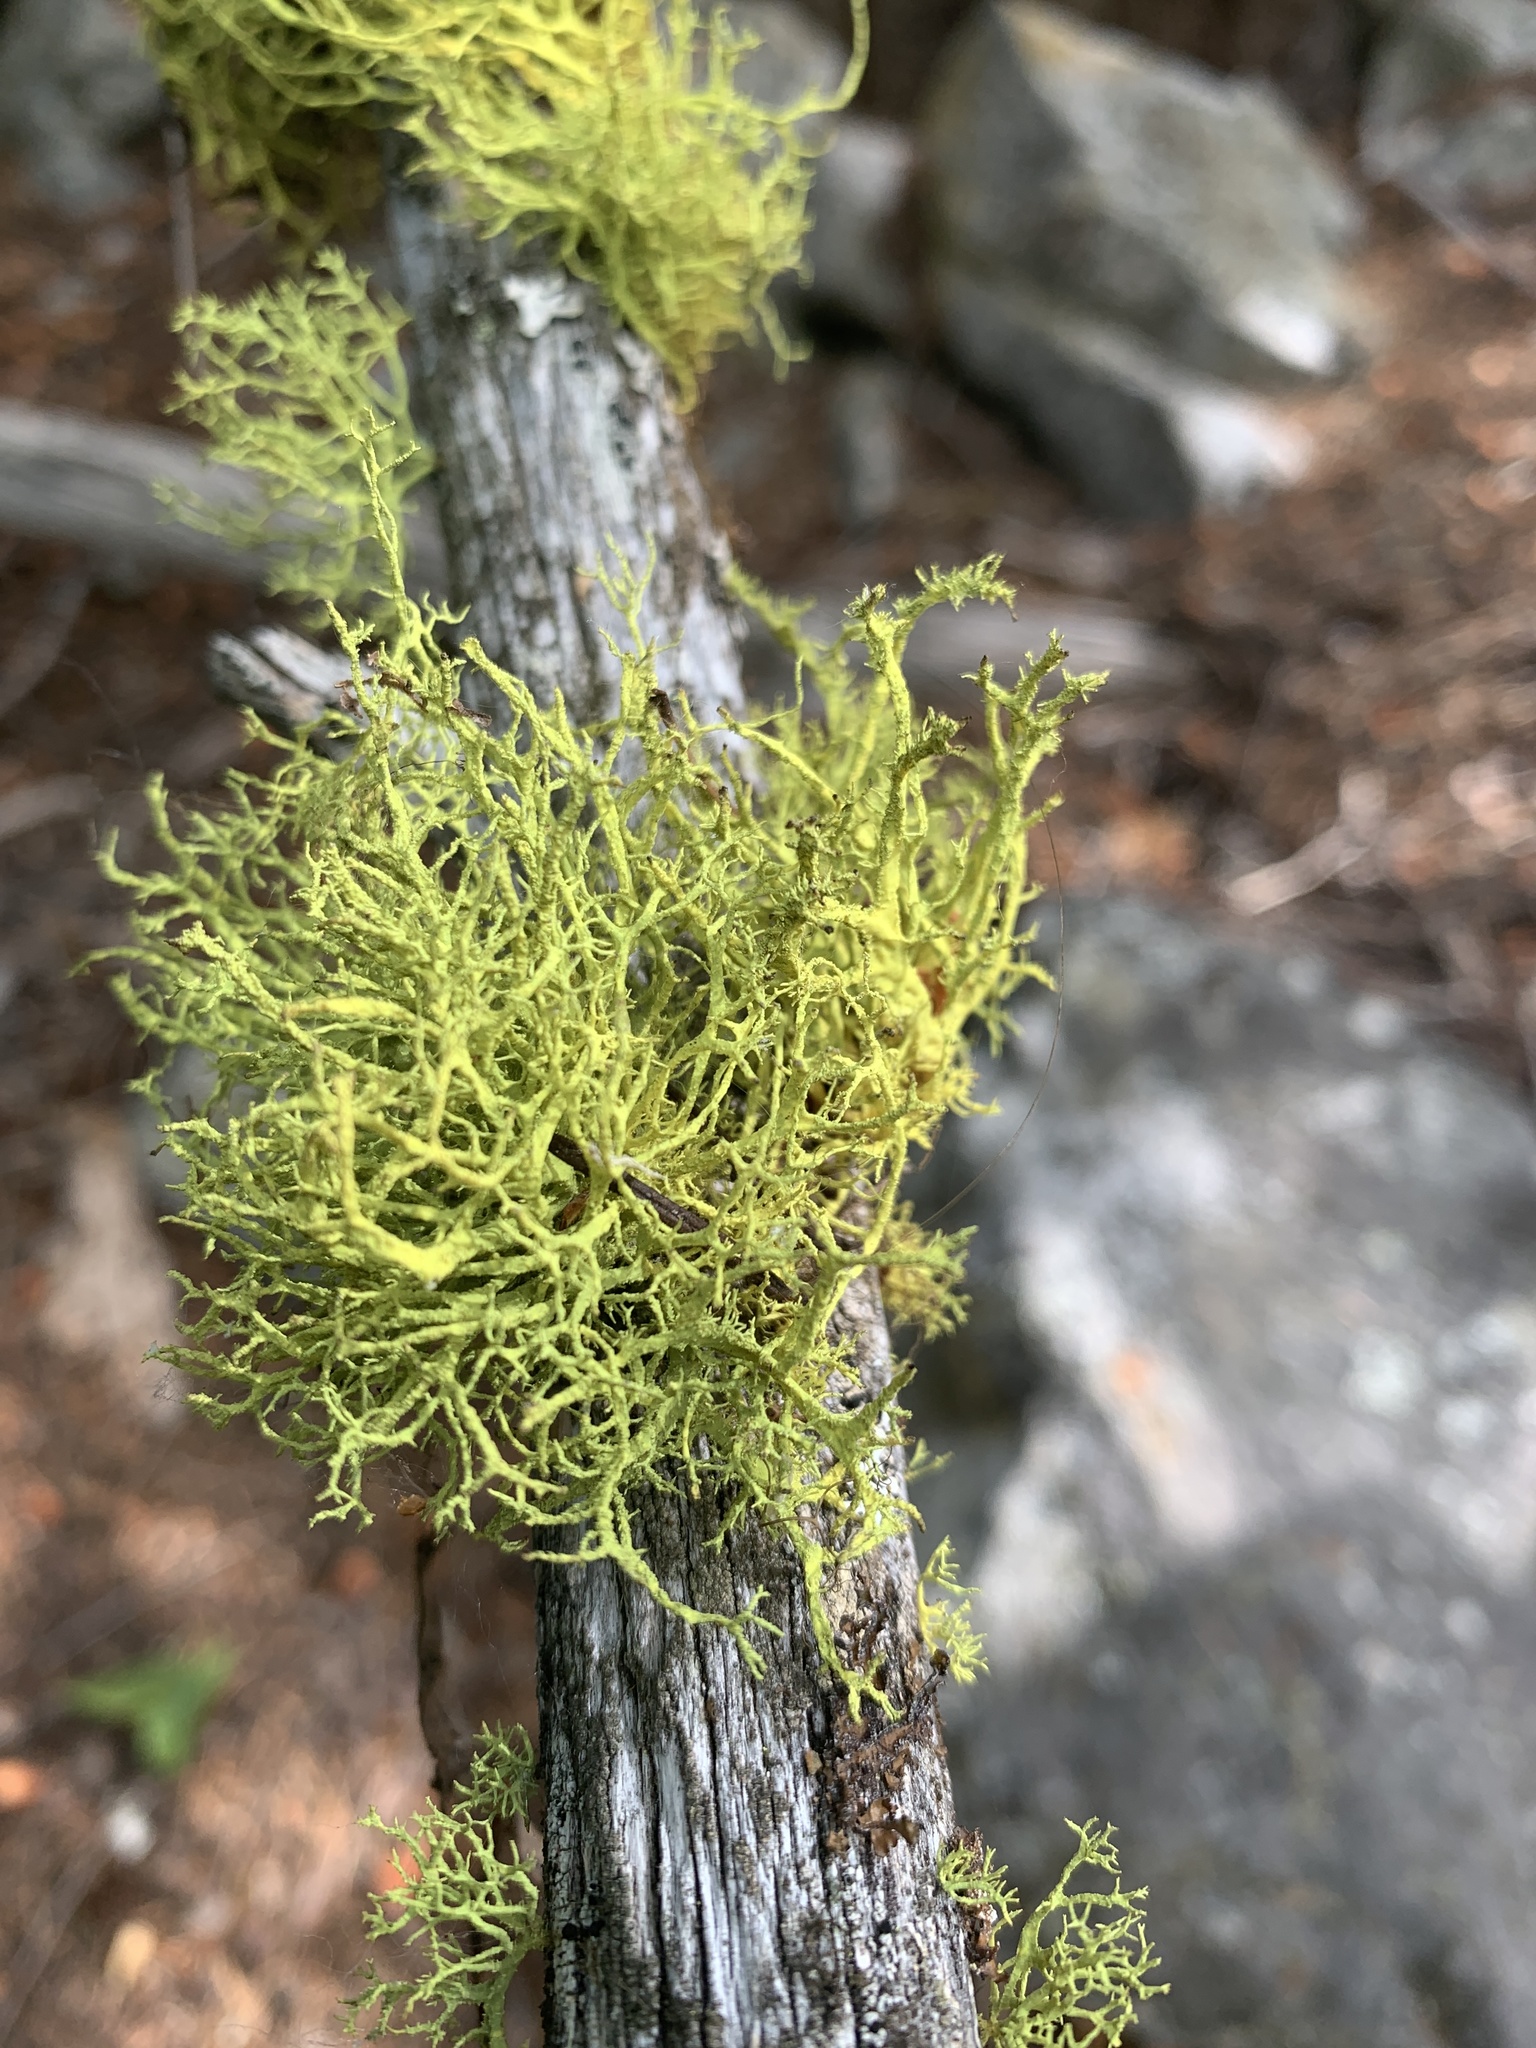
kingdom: Fungi
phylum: Ascomycota
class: Lecanoromycetes
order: Lecanorales
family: Parmeliaceae
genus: Letharia
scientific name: Letharia vulpina
